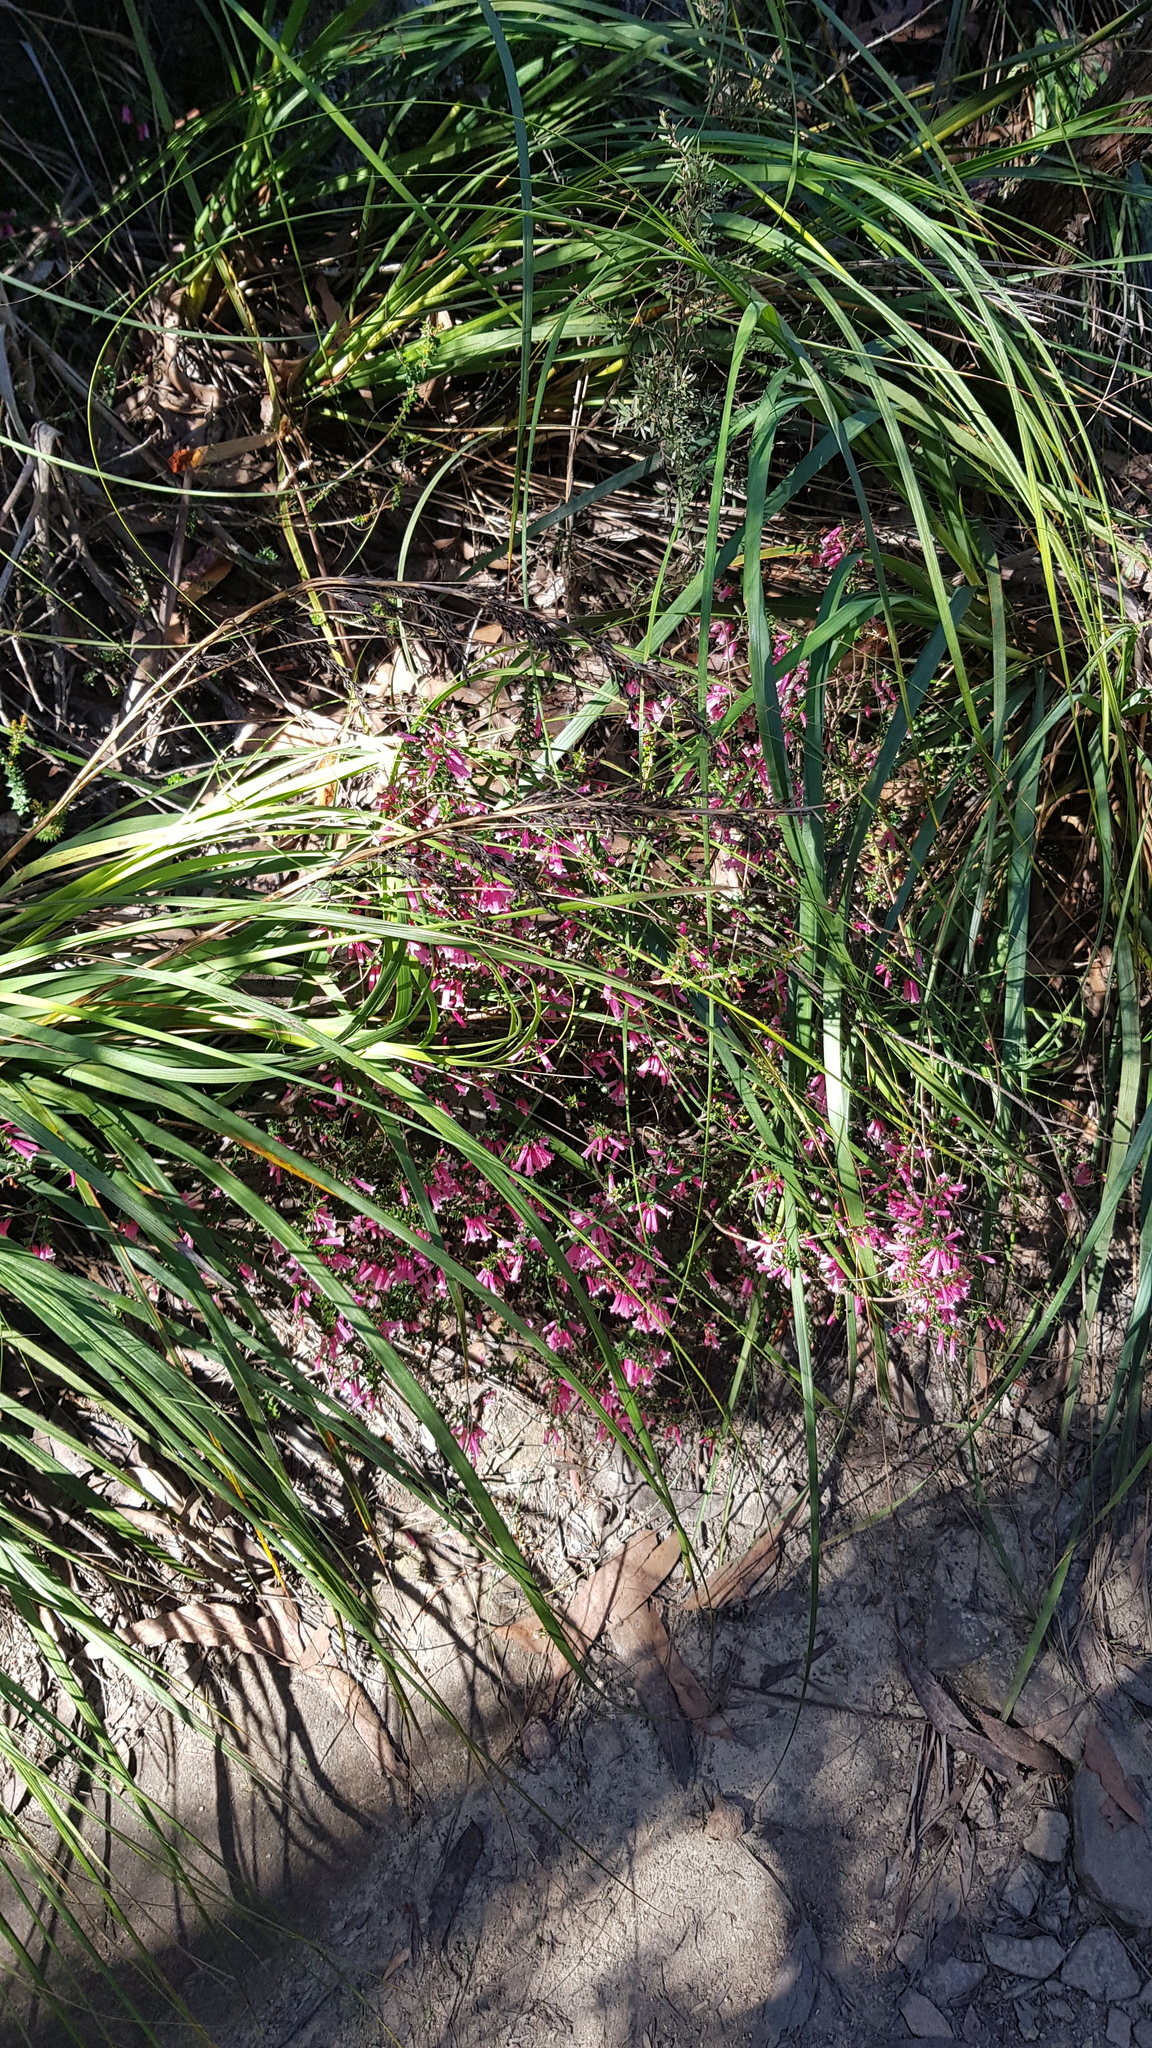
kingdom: Plantae
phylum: Tracheophyta
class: Magnoliopsida
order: Ericales
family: Ericaceae
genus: Epacris
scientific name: Epacris reclinata
